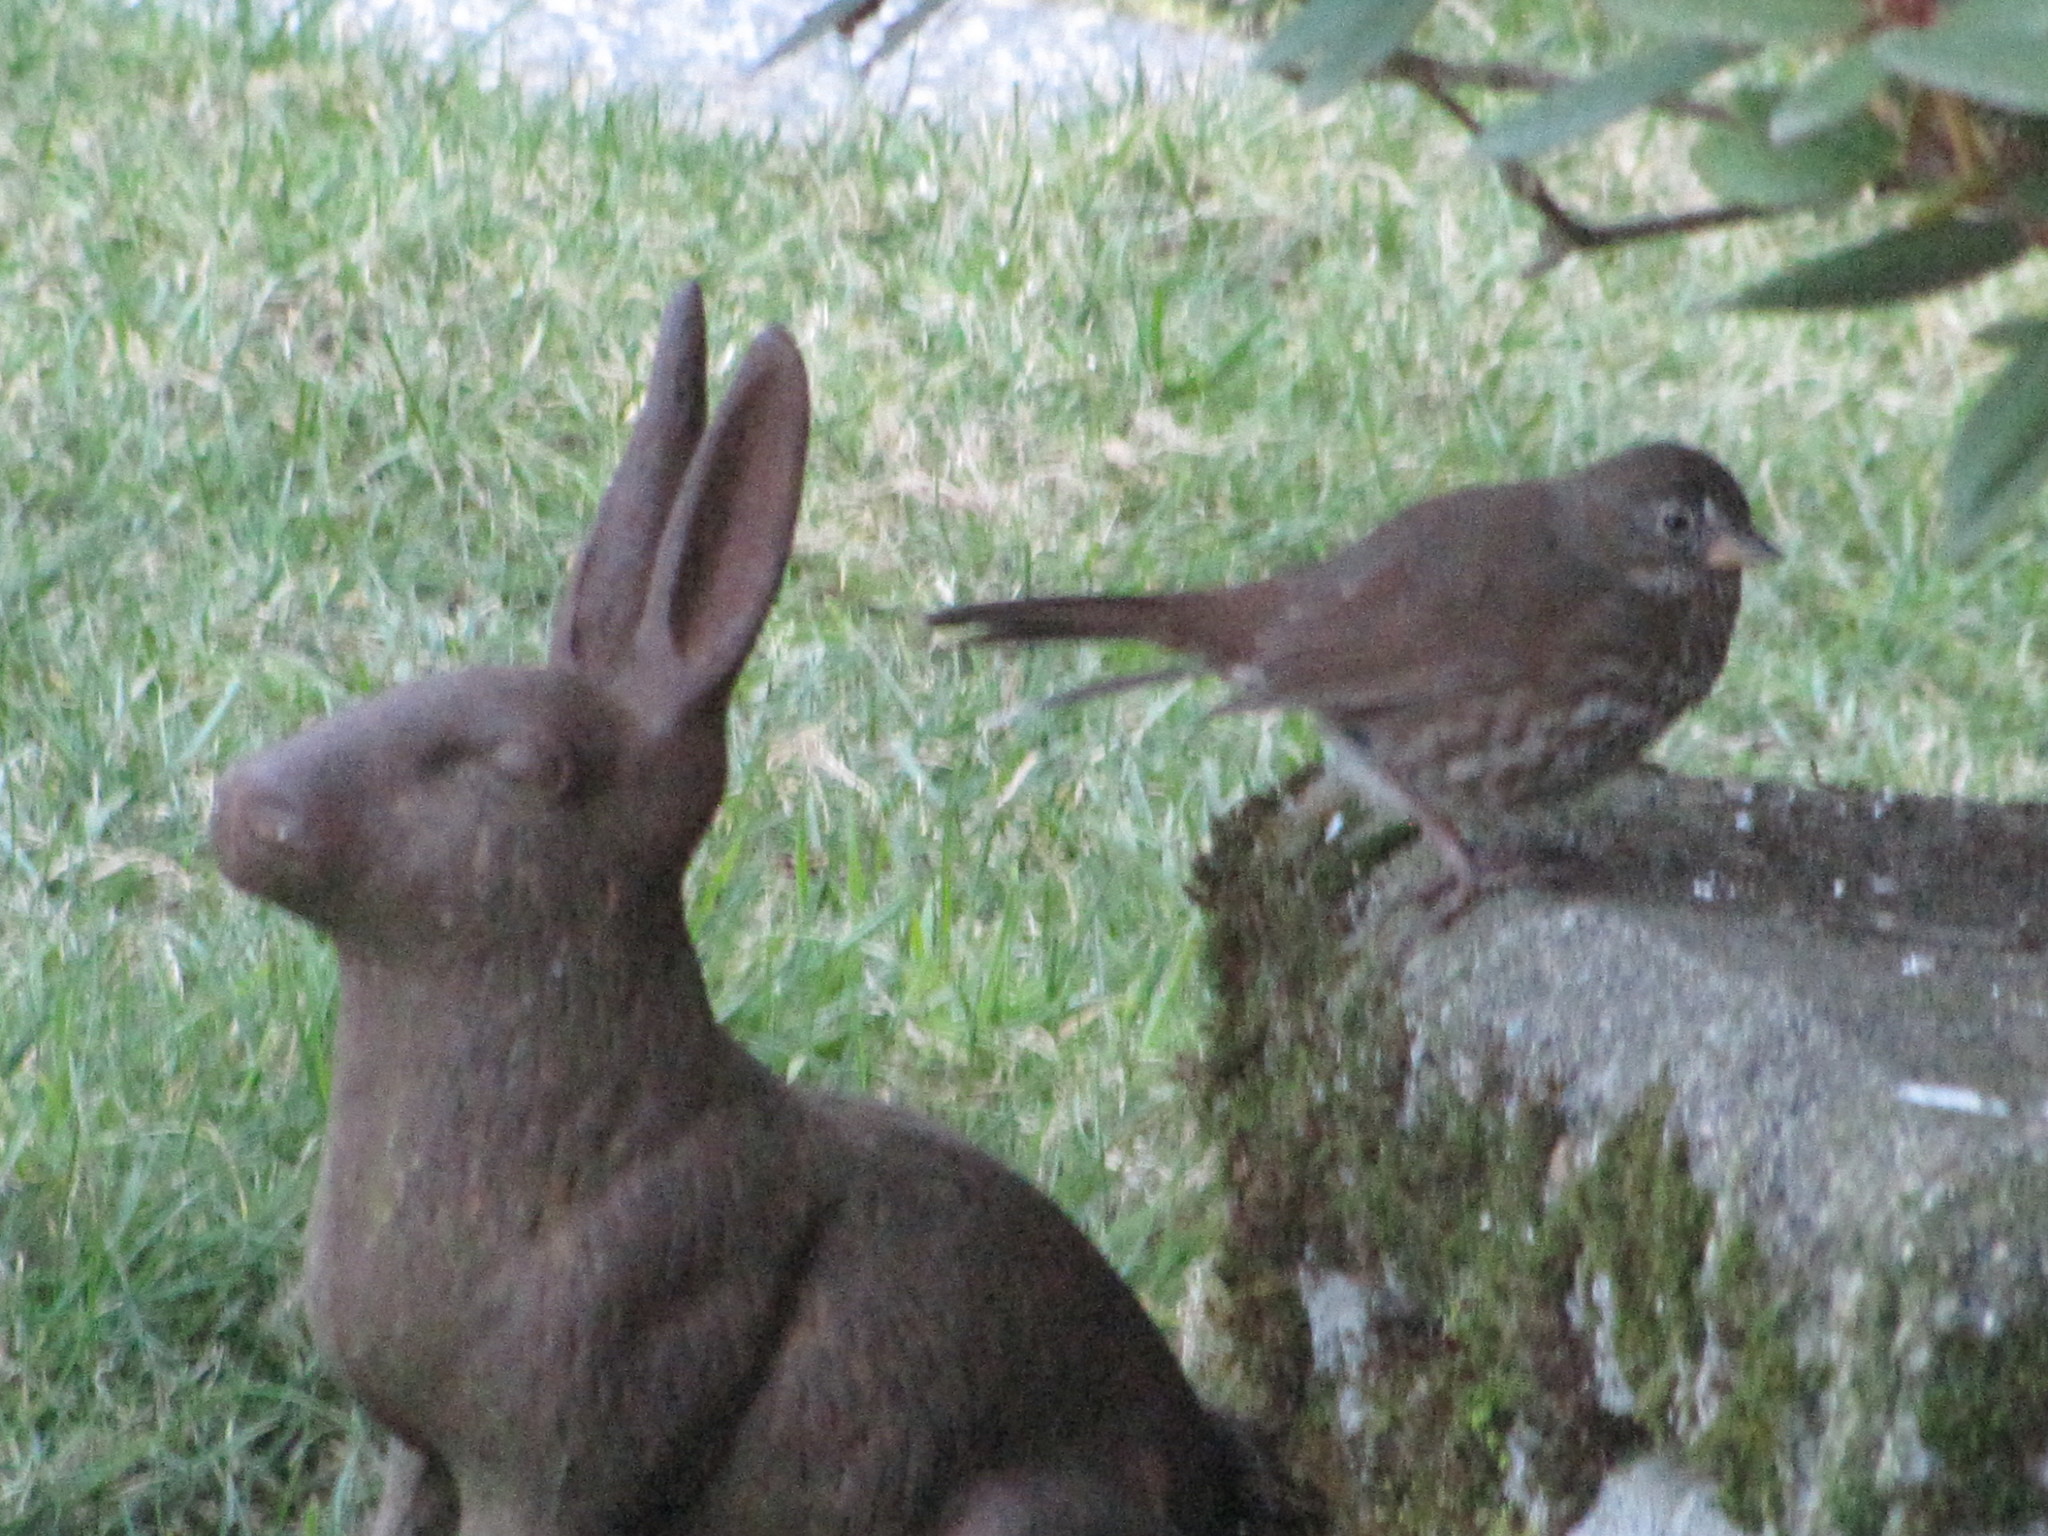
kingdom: Animalia
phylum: Chordata
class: Aves
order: Passeriformes
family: Passerellidae
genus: Passerella
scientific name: Passerella iliaca
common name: Fox sparrow
